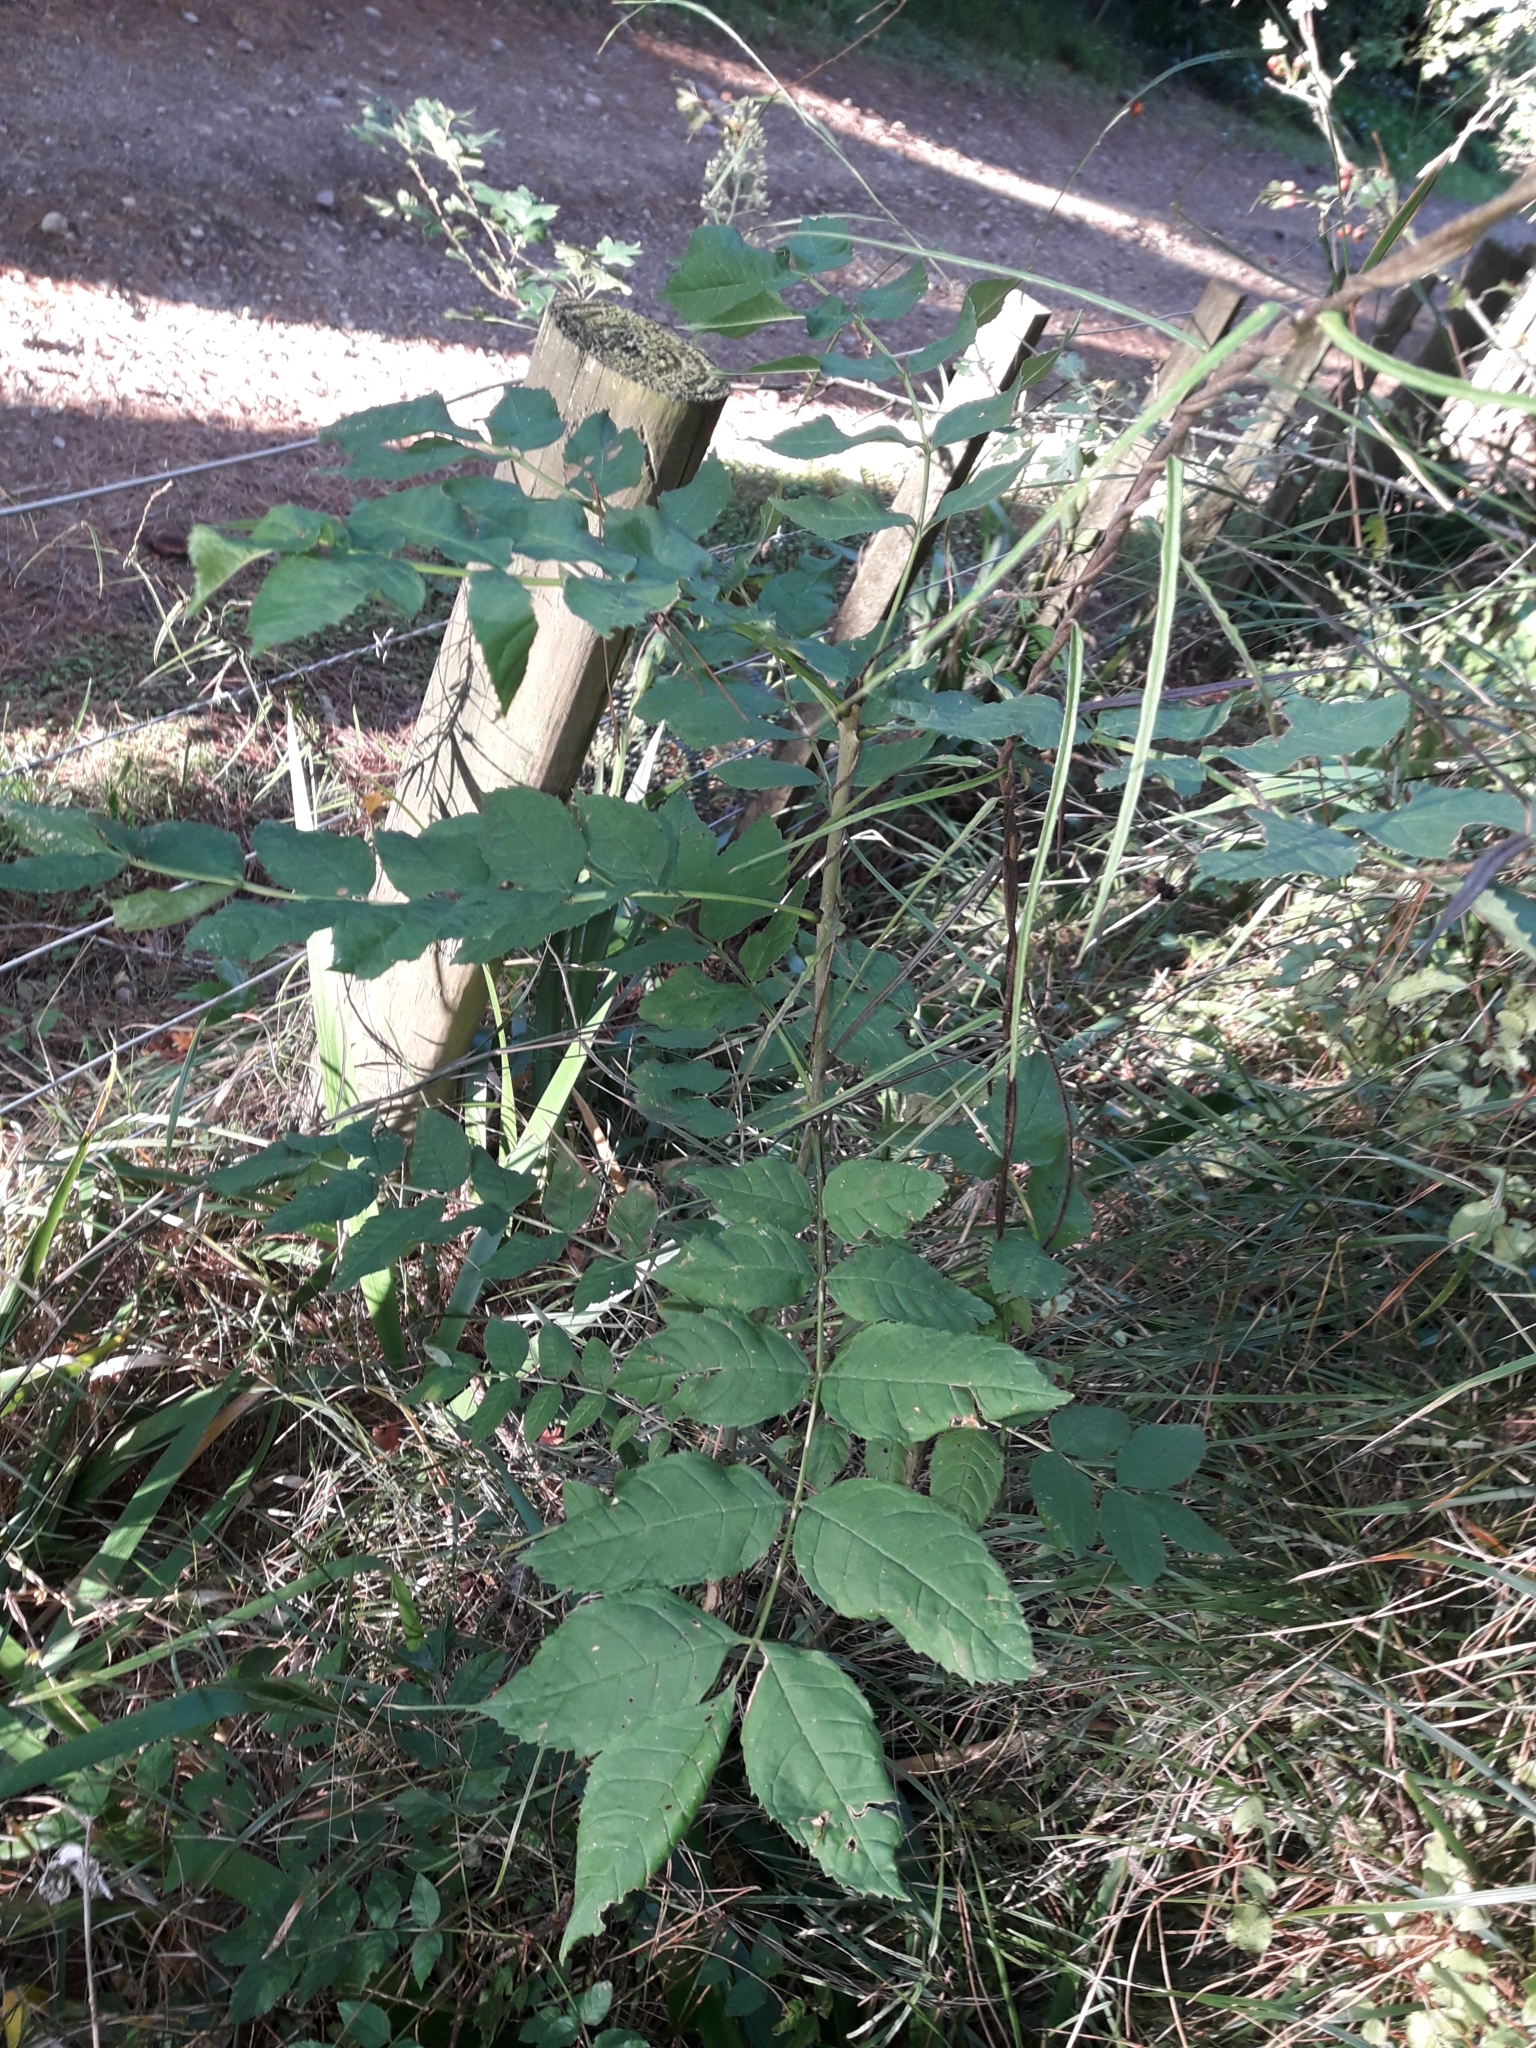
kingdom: Plantae
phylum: Tracheophyta
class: Magnoliopsida
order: Lamiales
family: Oleaceae
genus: Fraxinus
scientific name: Fraxinus excelsior
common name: European ash
